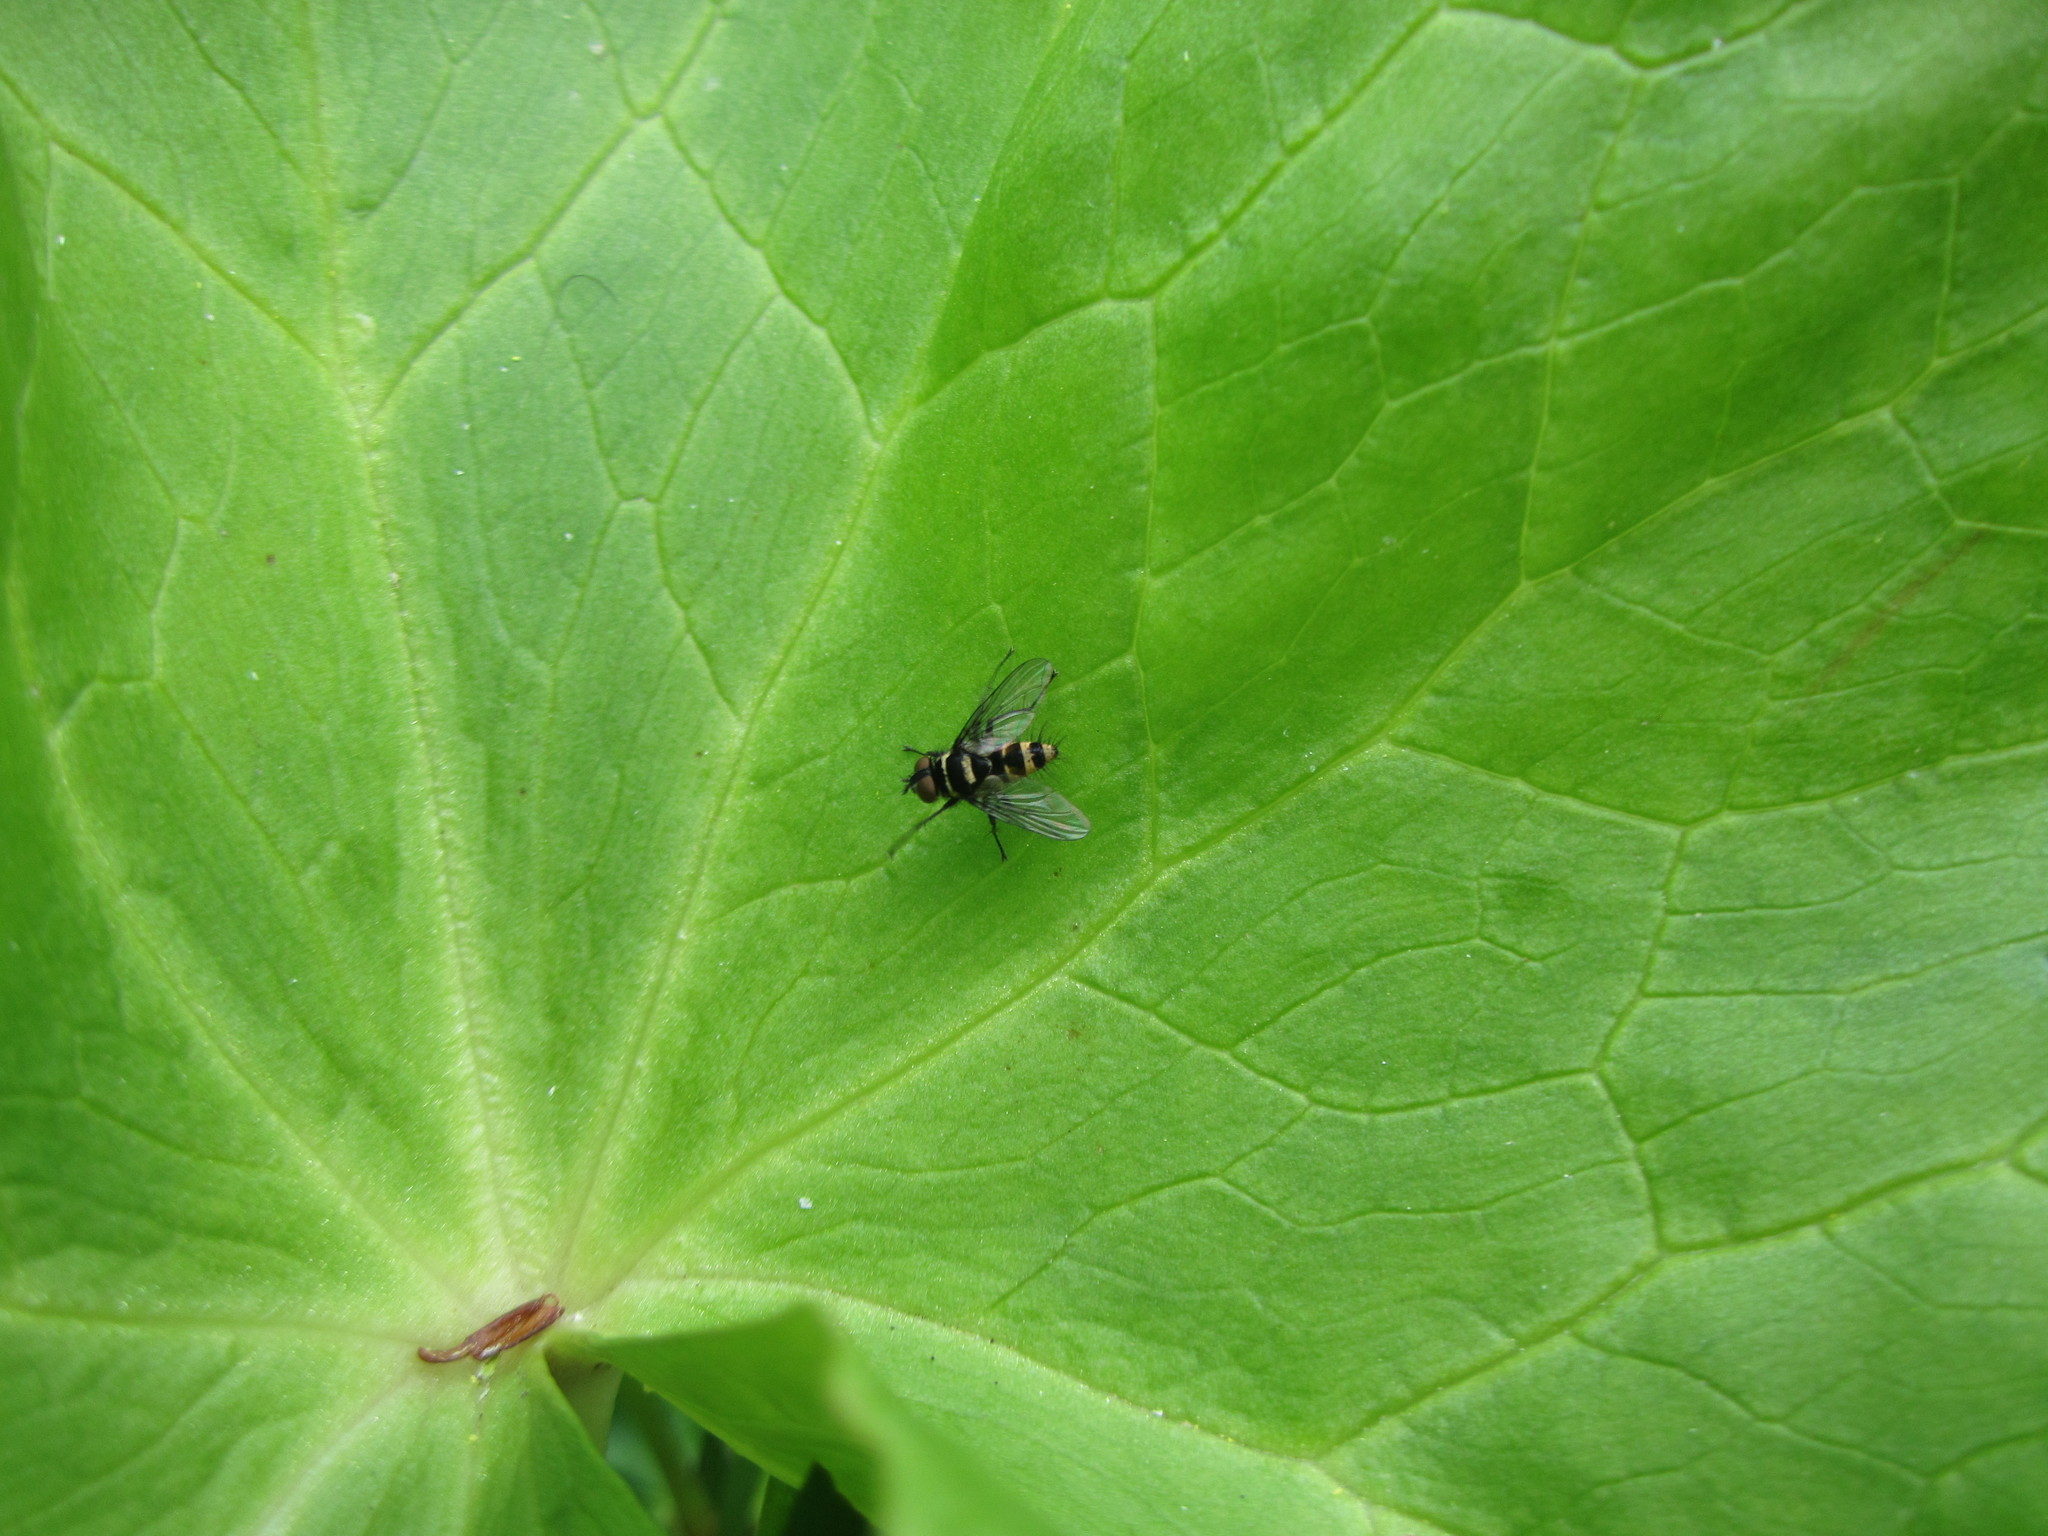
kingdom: Animalia
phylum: Arthropoda
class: Insecta
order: Diptera
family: Tachinidae
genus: Trigonospila
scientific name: Trigonospila brevifacies
